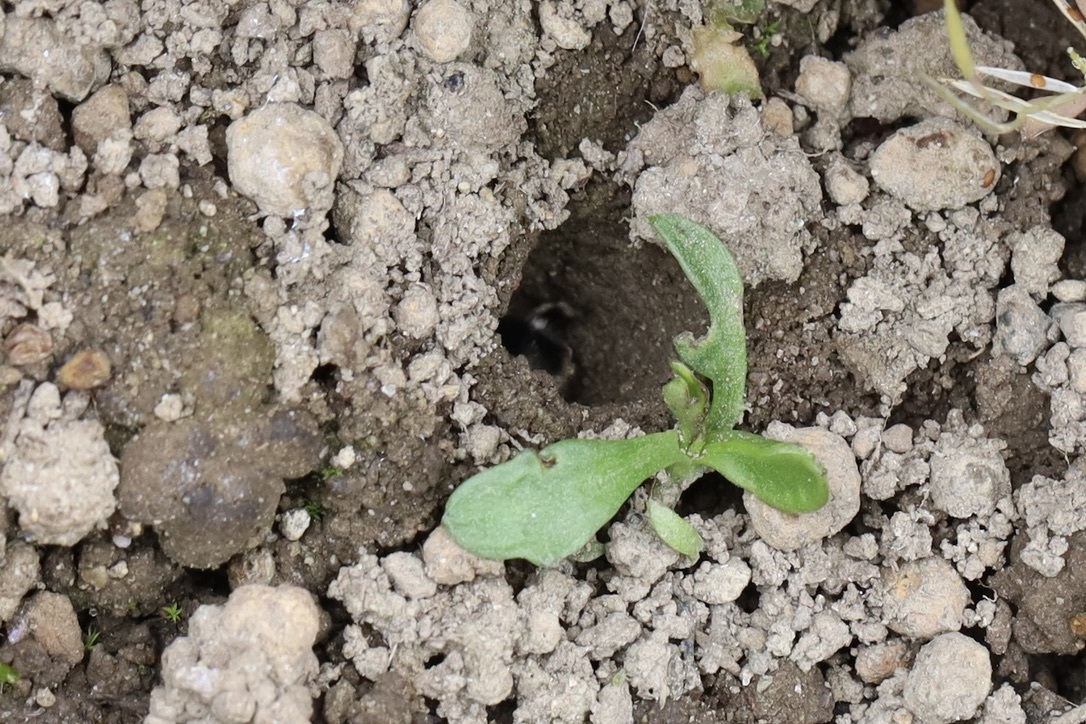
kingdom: Animalia
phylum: Arthropoda
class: Insecta
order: Hymenoptera
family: Apidae
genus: Anthophora
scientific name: Anthophora pacifica
